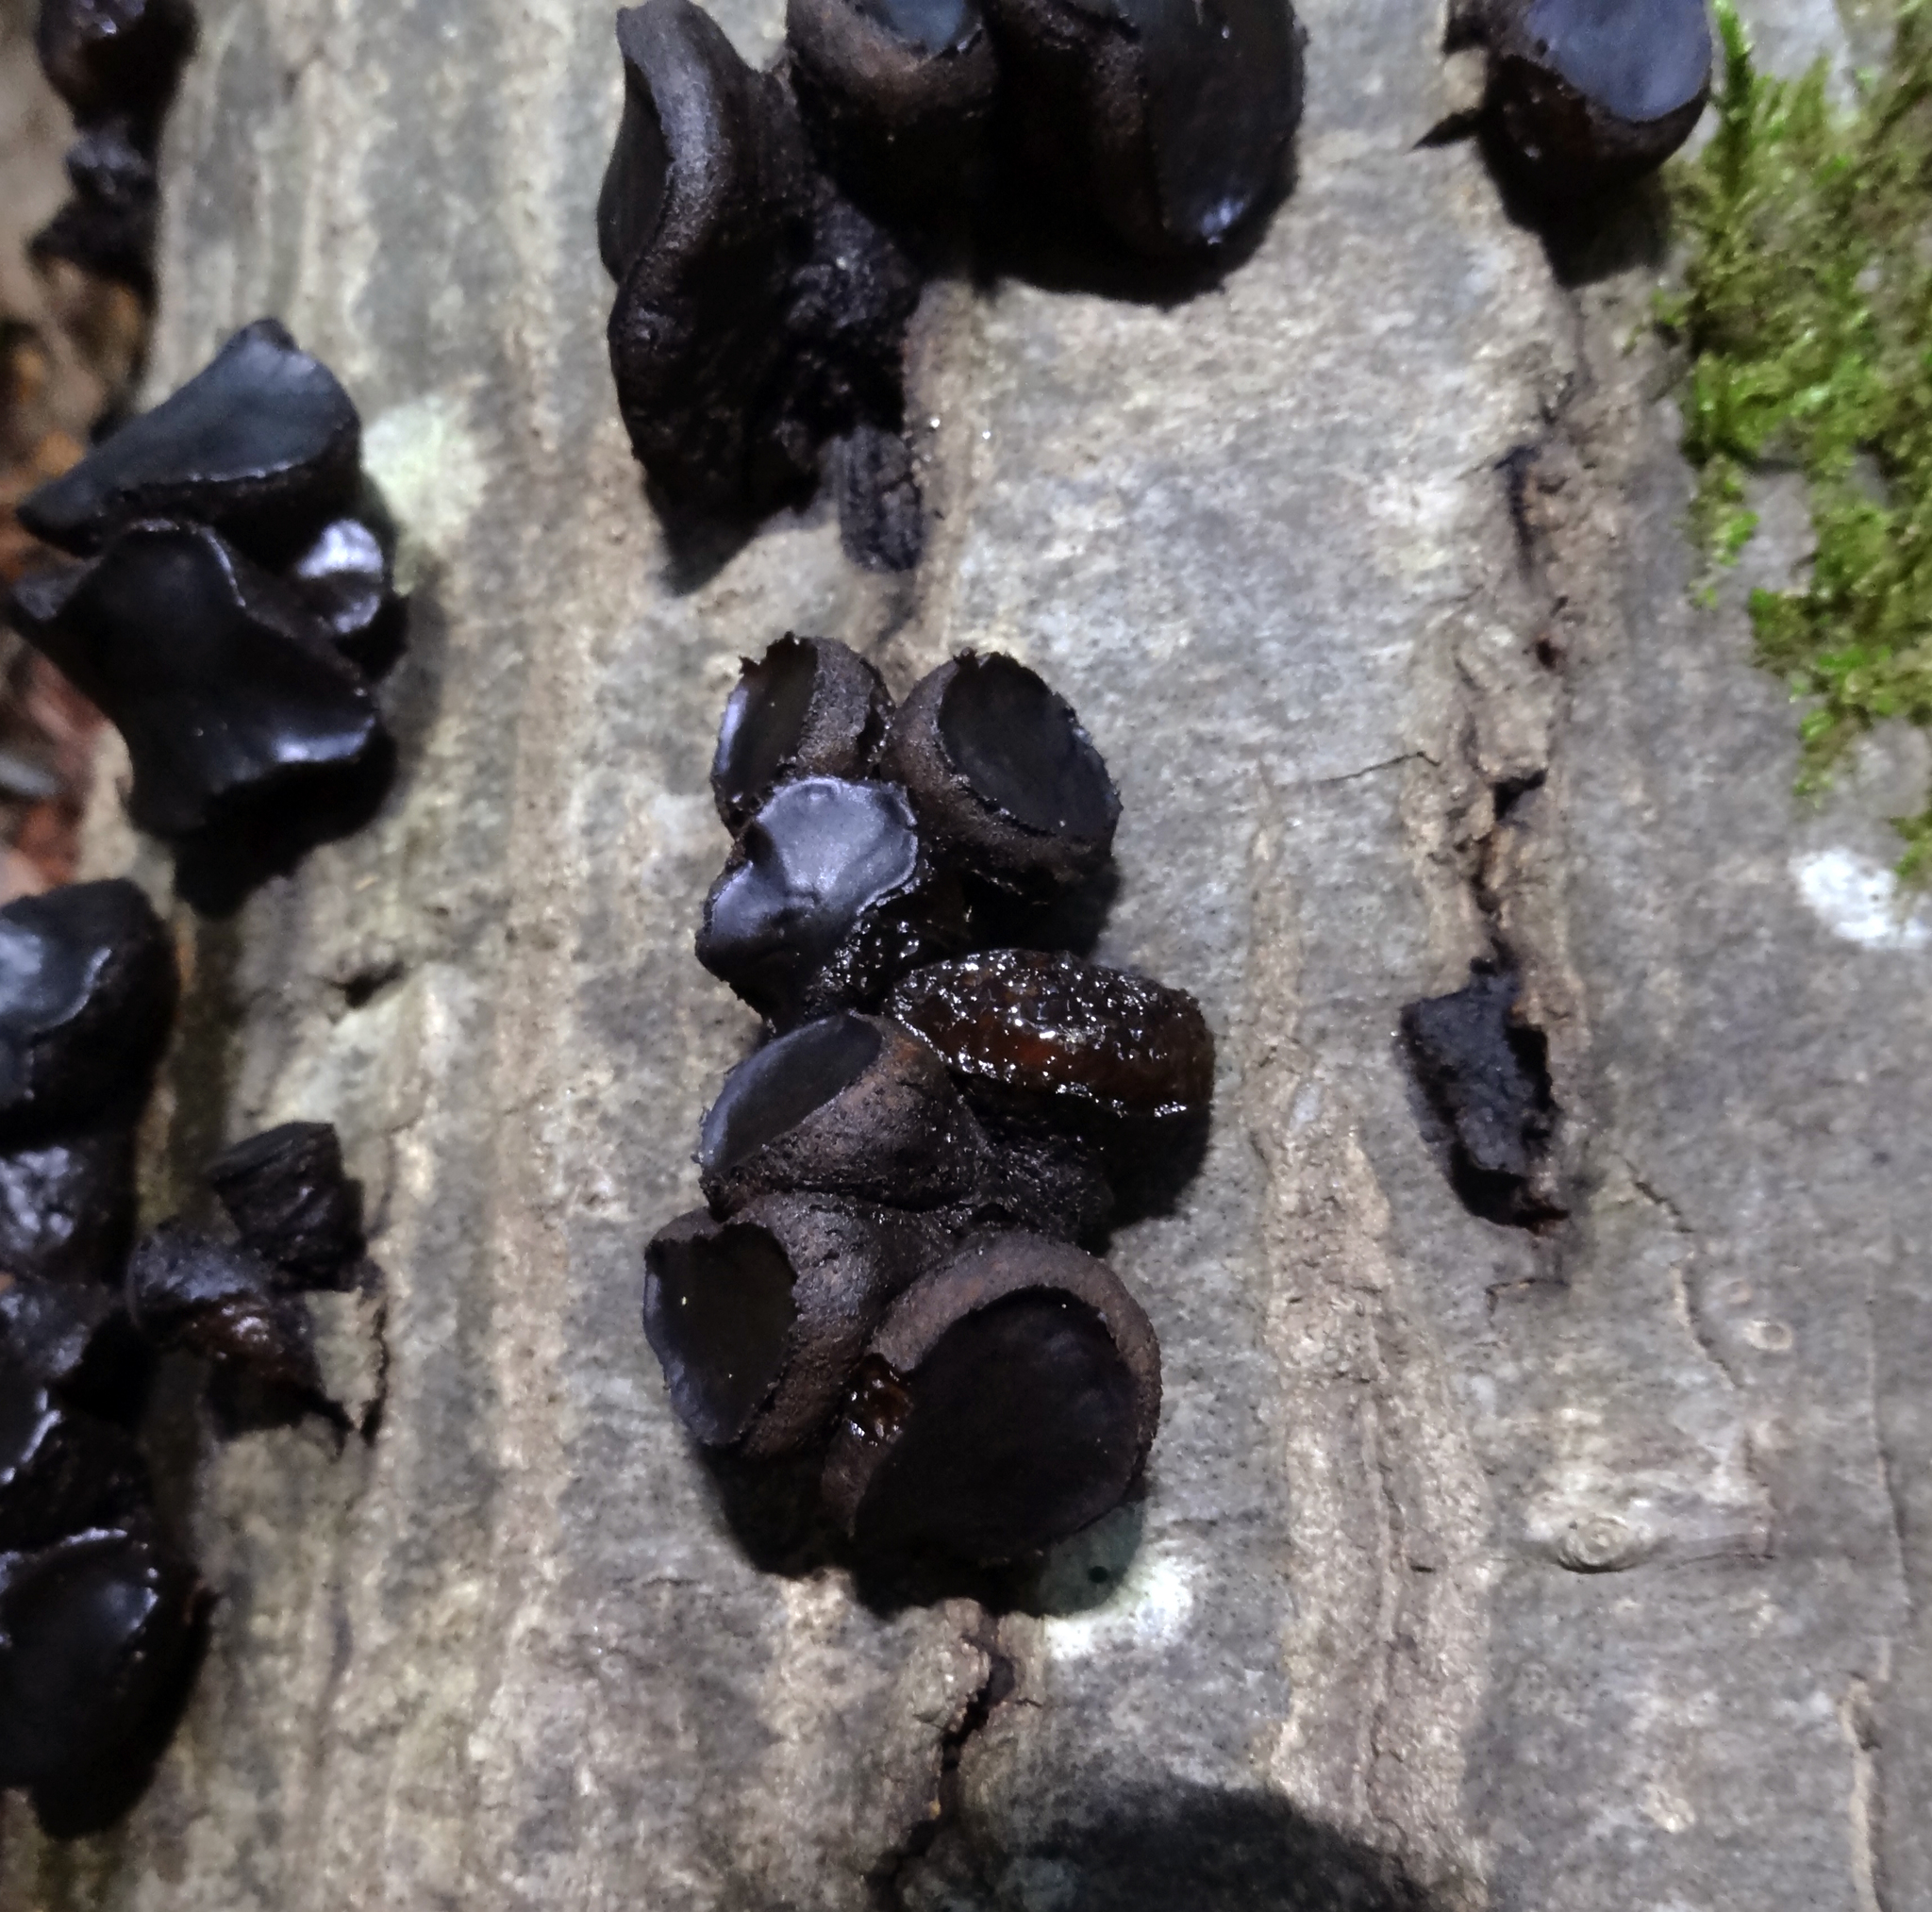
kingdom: Fungi
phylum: Ascomycota
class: Leotiomycetes
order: Phacidiales
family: Phacidiaceae
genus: Bulgaria
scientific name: Bulgaria inquinans
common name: Black bulgar
